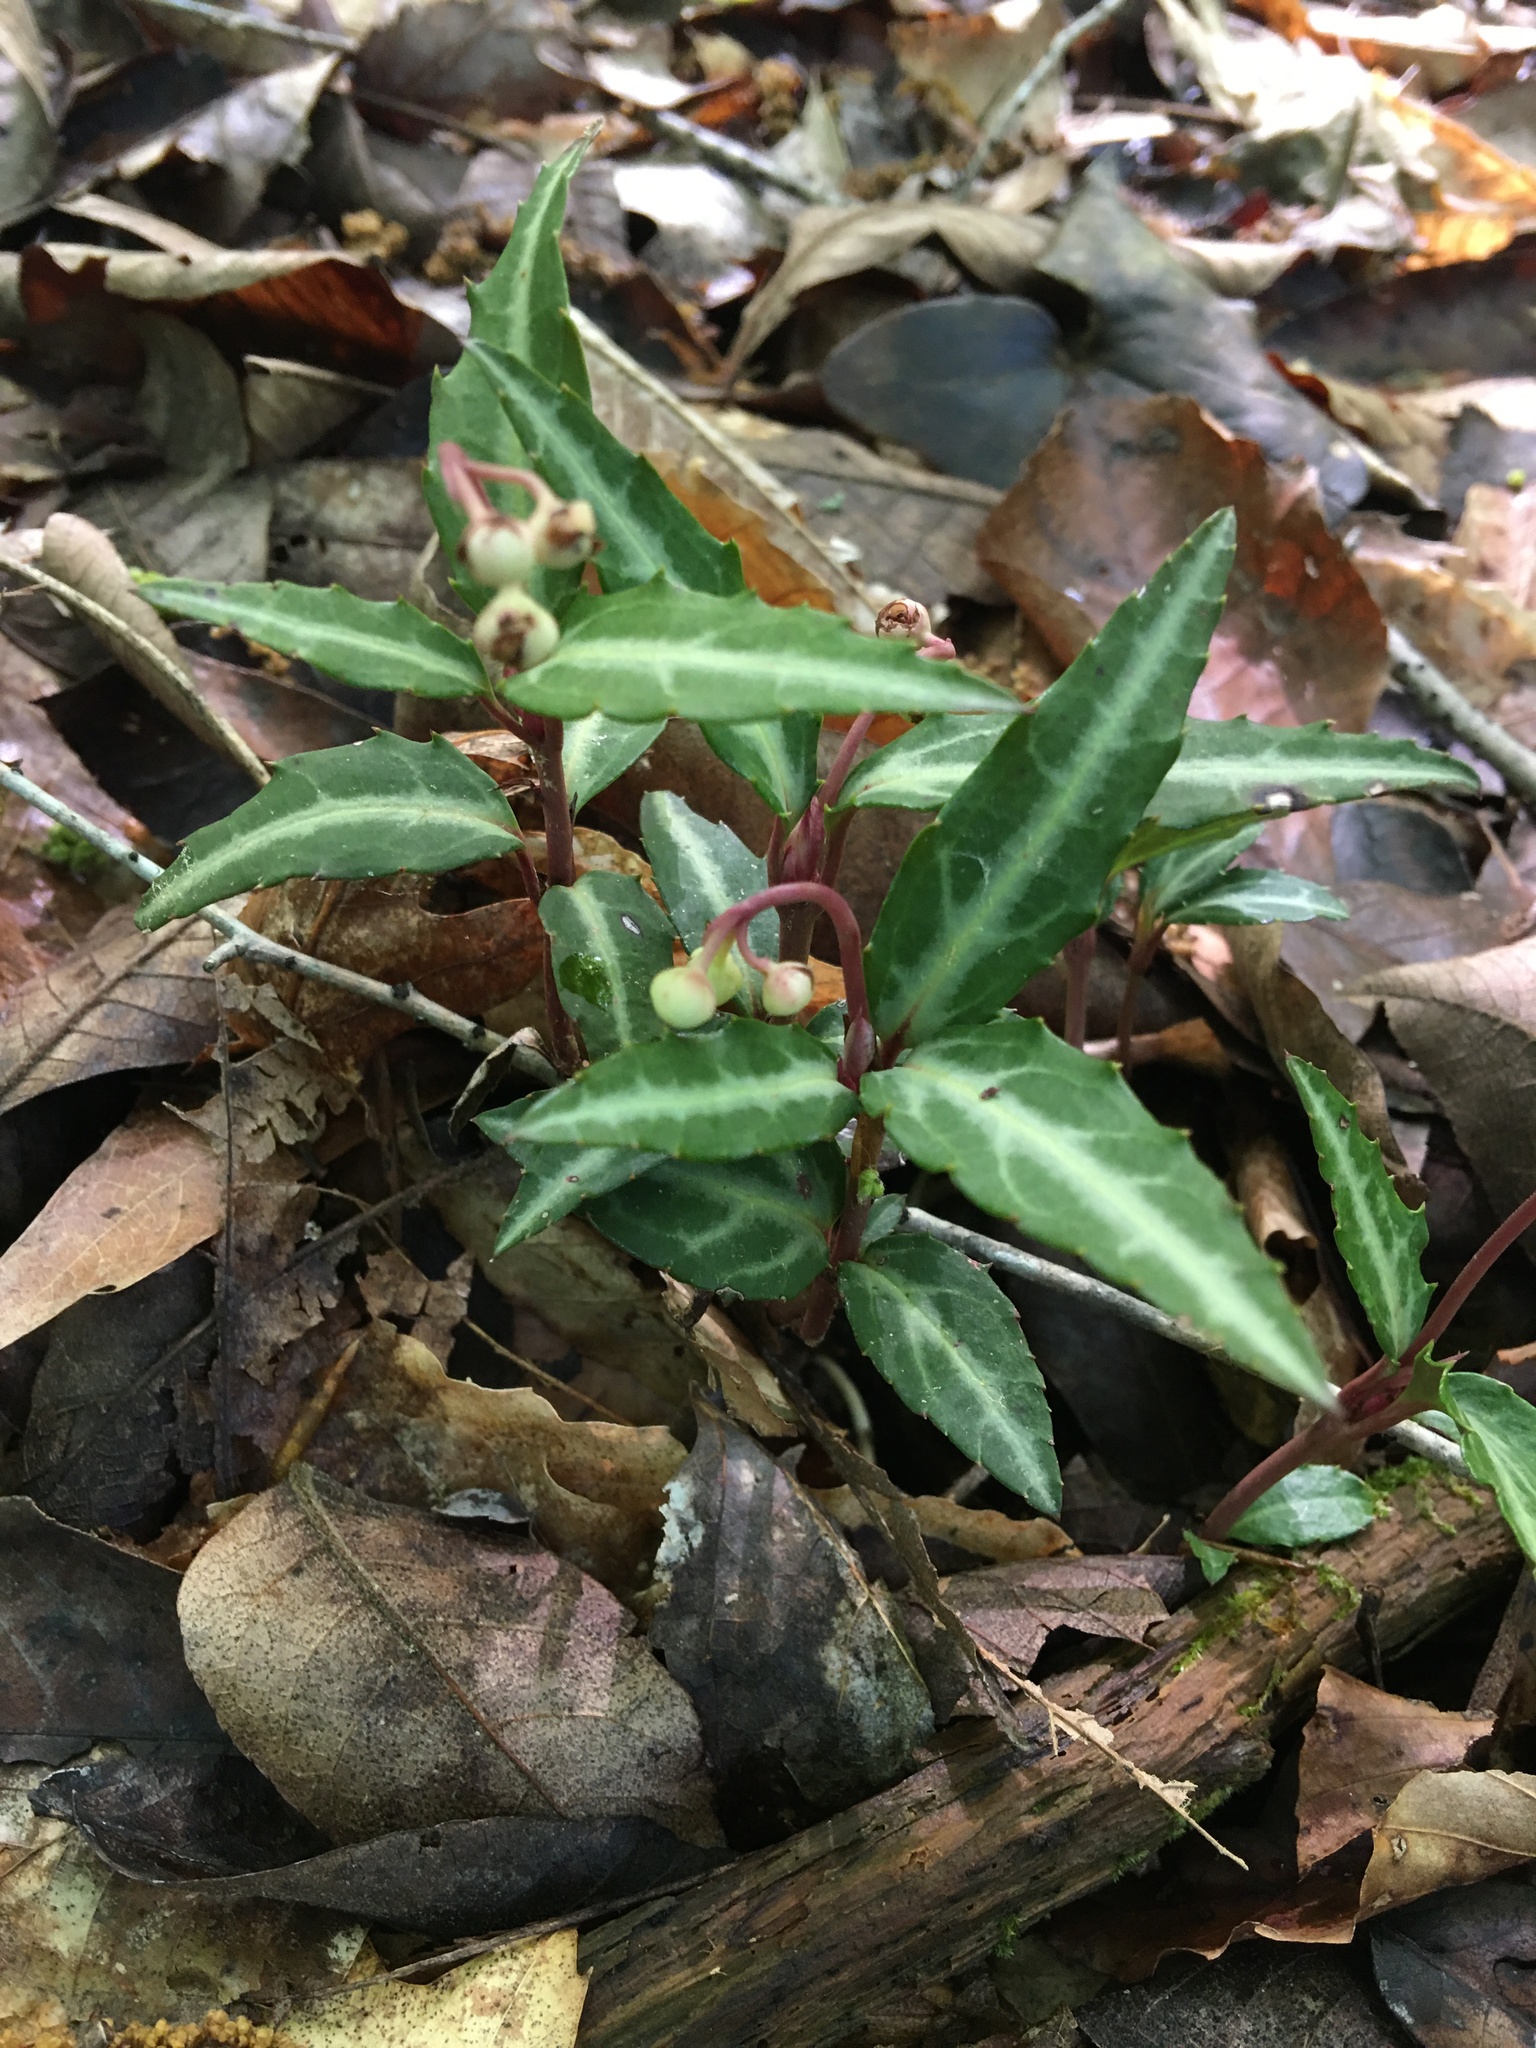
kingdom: Plantae
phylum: Tracheophyta
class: Magnoliopsida
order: Ericales
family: Ericaceae
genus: Chimaphila
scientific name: Chimaphila maculata
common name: Spotted pipsissewa
